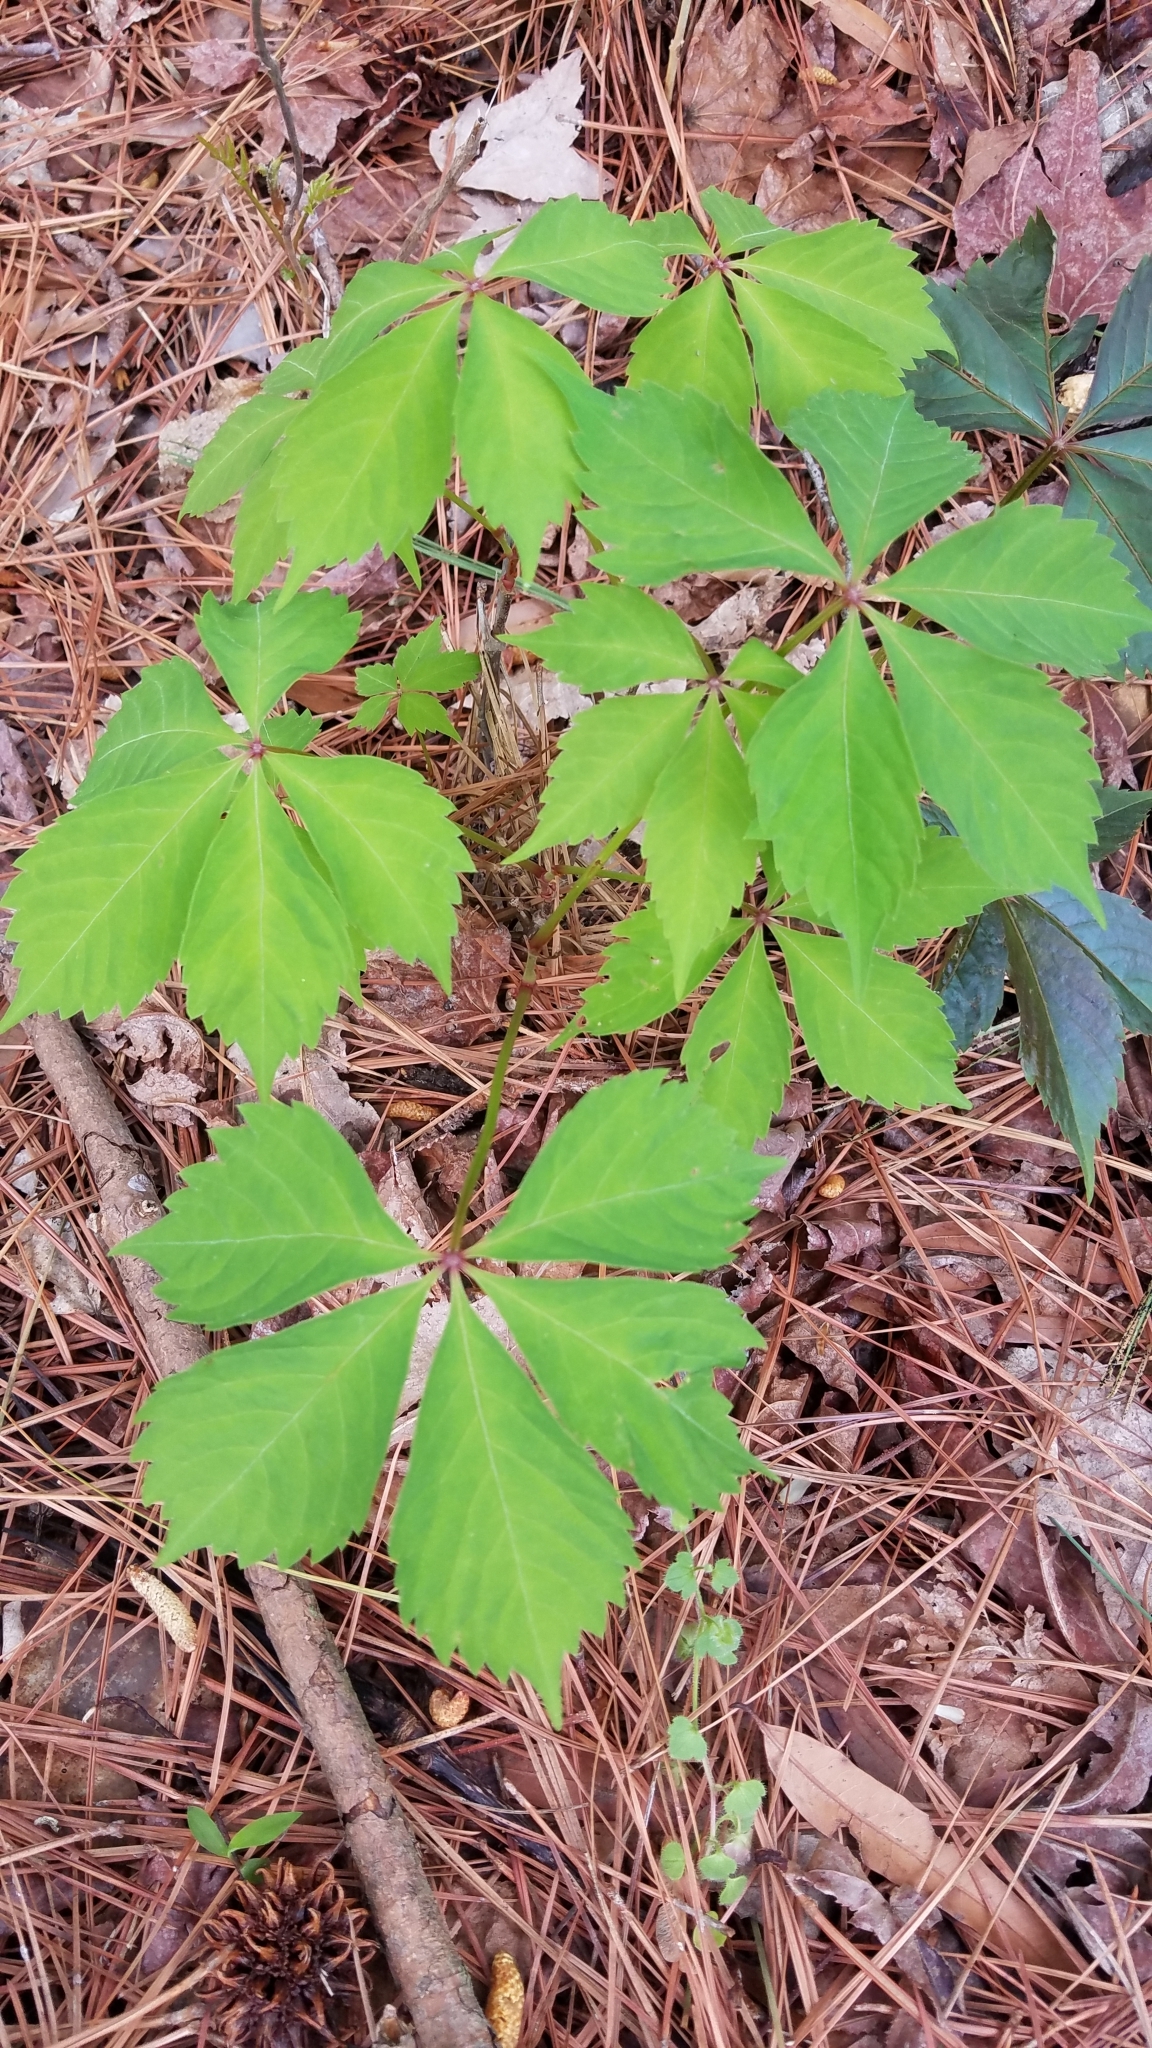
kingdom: Plantae
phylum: Tracheophyta
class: Magnoliopsida
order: Vitales
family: Vitaceae
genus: Parthenocissus
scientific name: Parthenocissus quinquefolia
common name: Virginia-creeper
